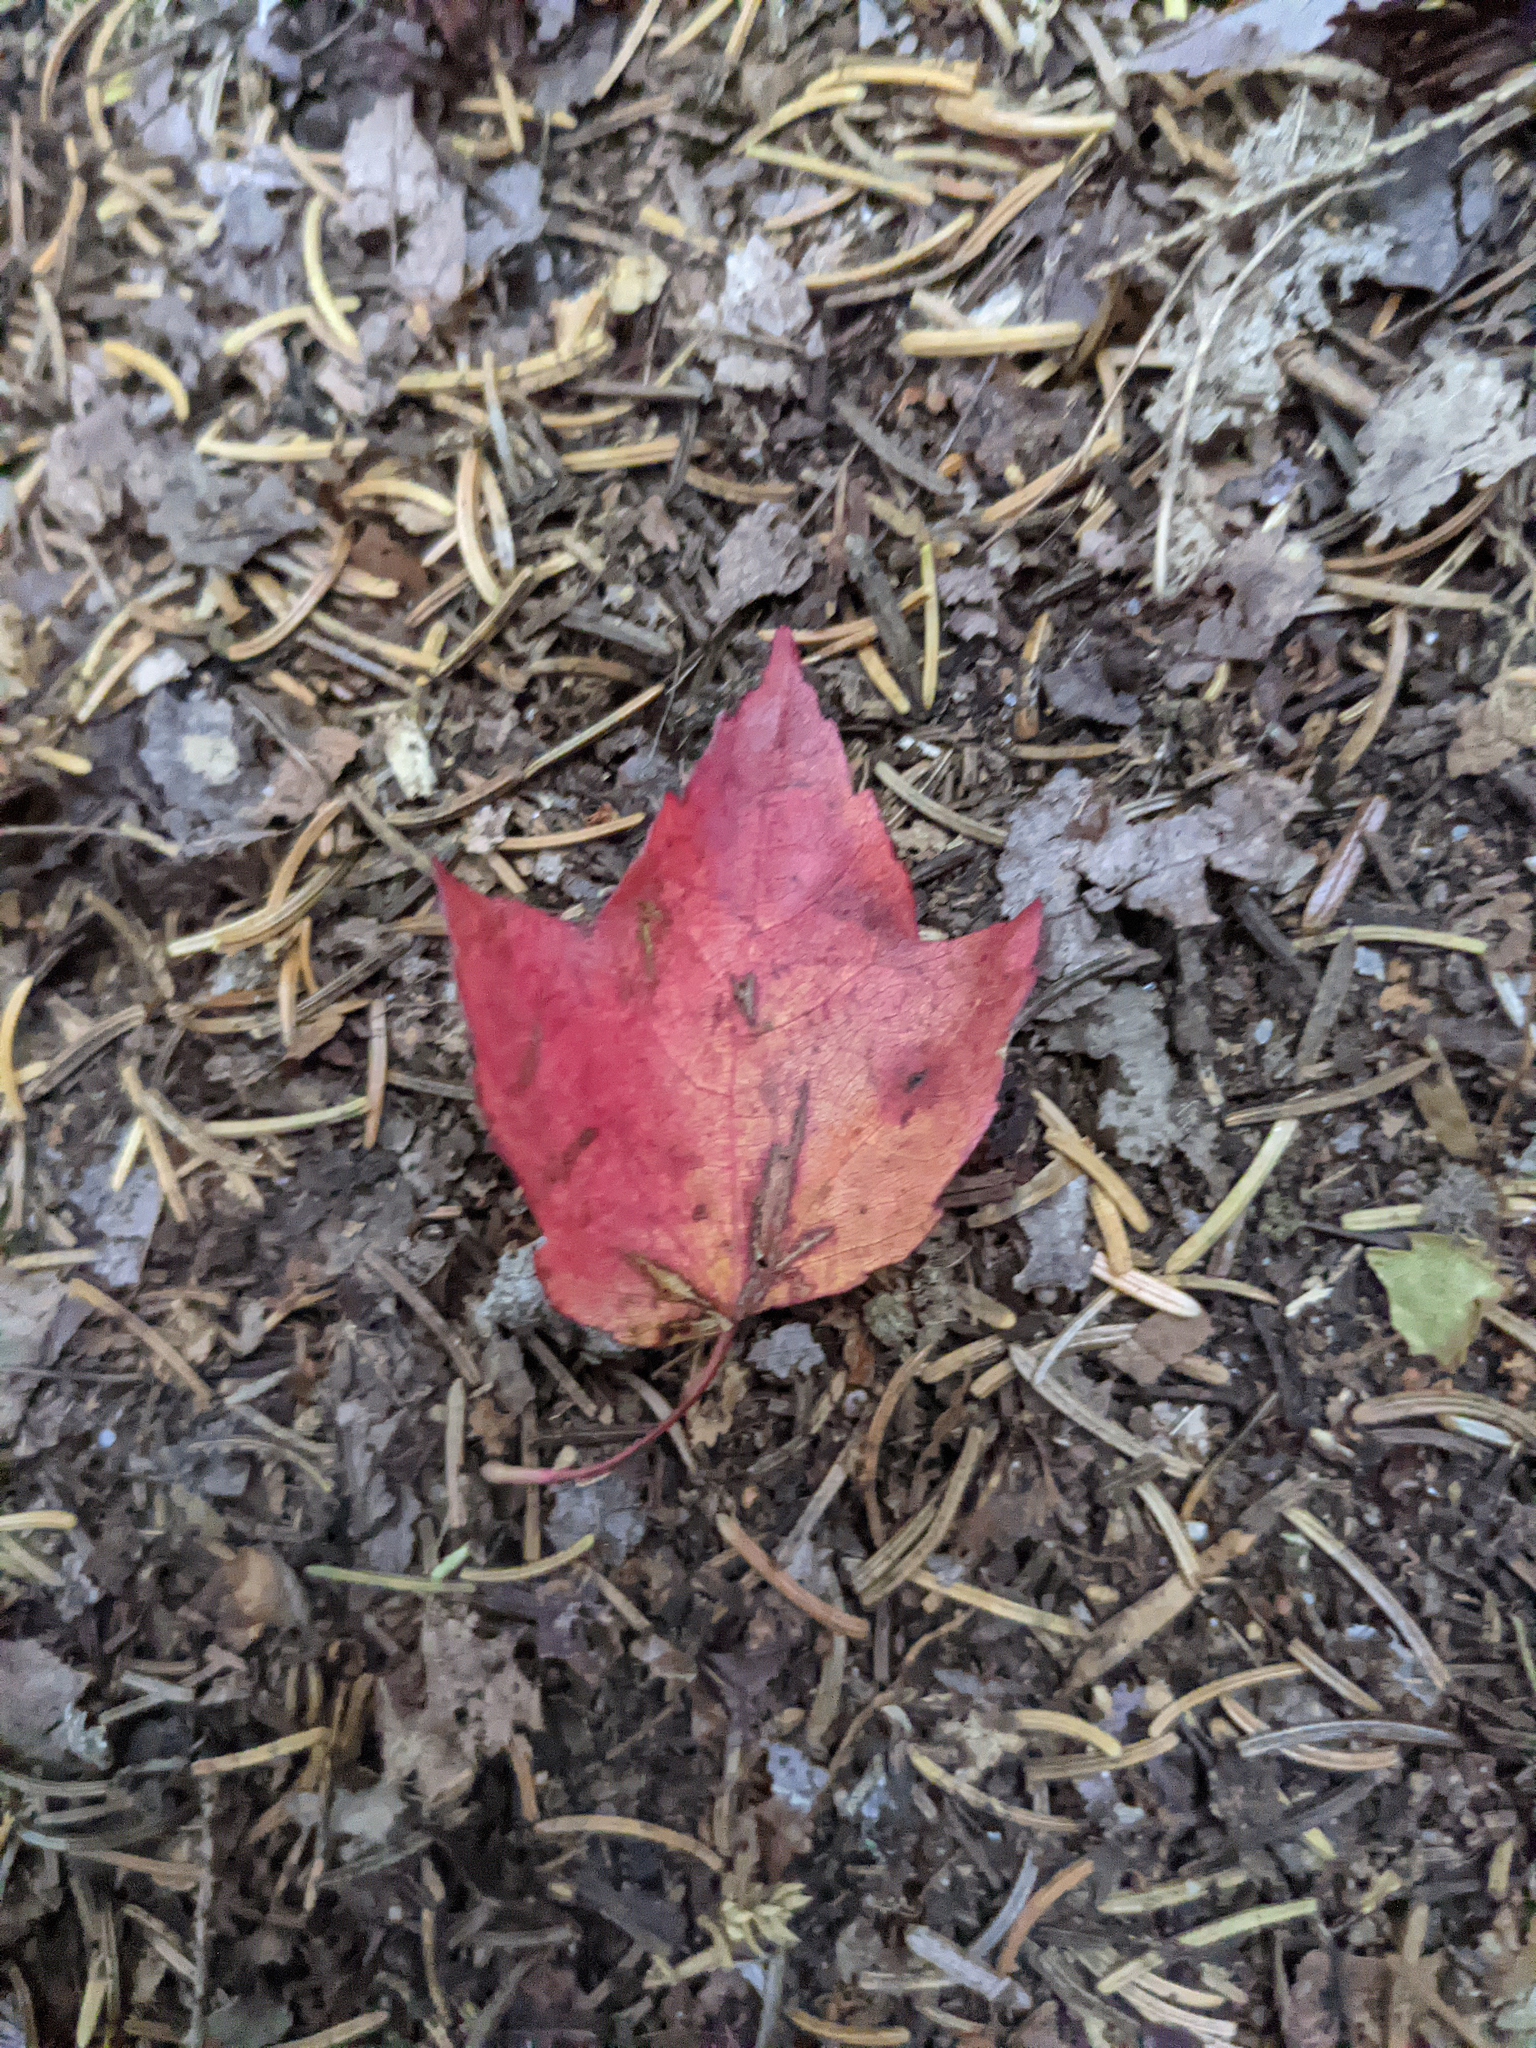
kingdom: Plantae
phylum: Tracheophyta
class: Magnoliopsida
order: Sapindales
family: Sapindaceae
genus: Acer
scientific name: Acer rubrum
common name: Red maple
